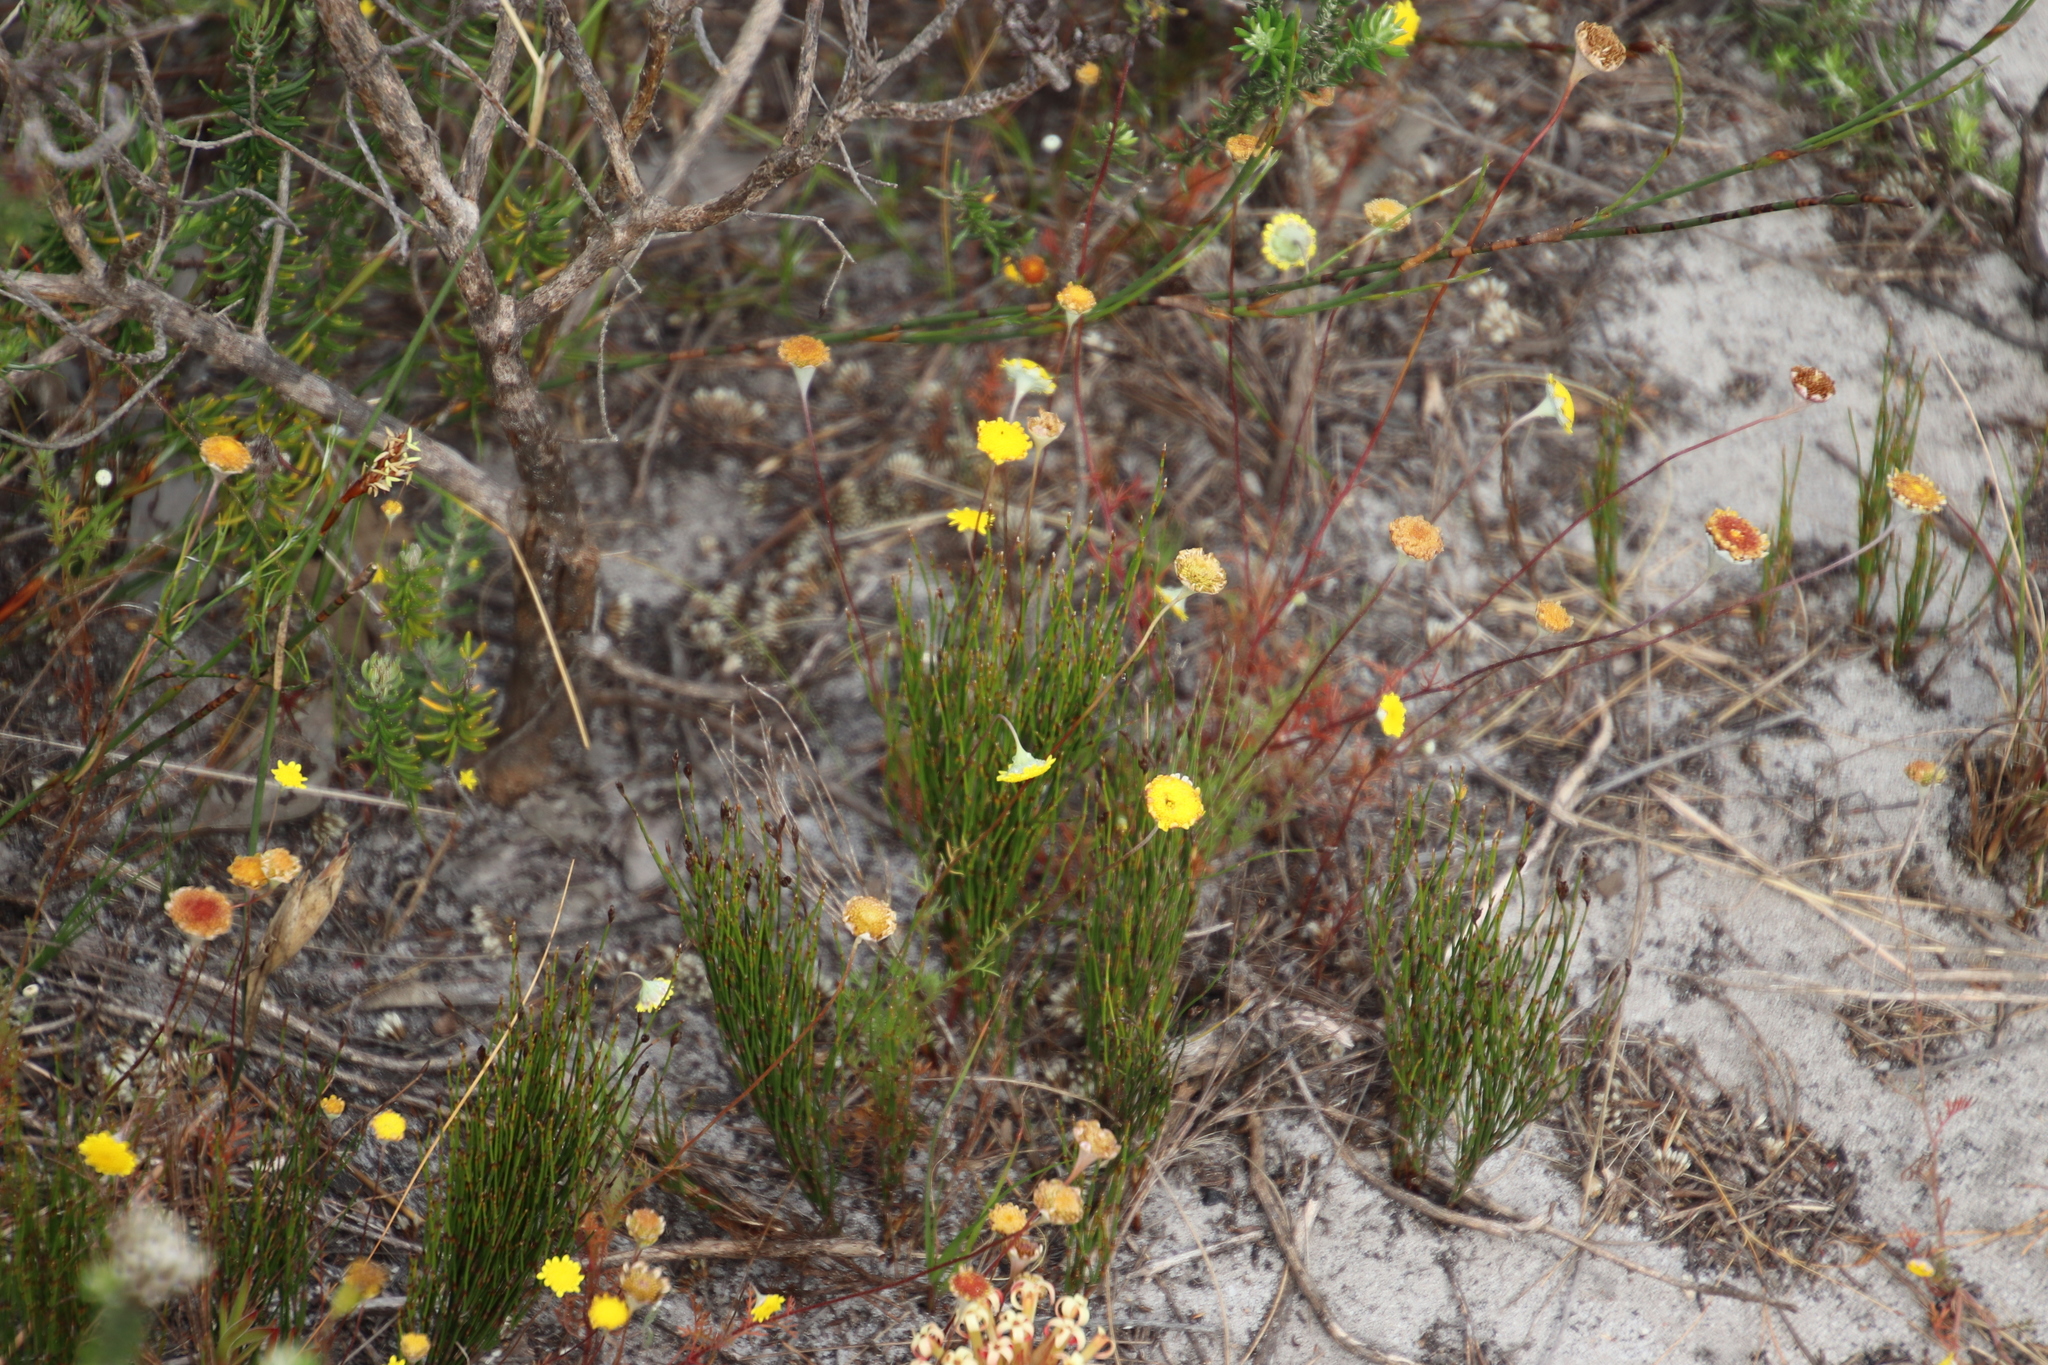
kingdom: Plantae
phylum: Tracheophyta
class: Magnoliopsida
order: Asterales
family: Asteraceae
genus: Cotula
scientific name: Cotula pruinosa
